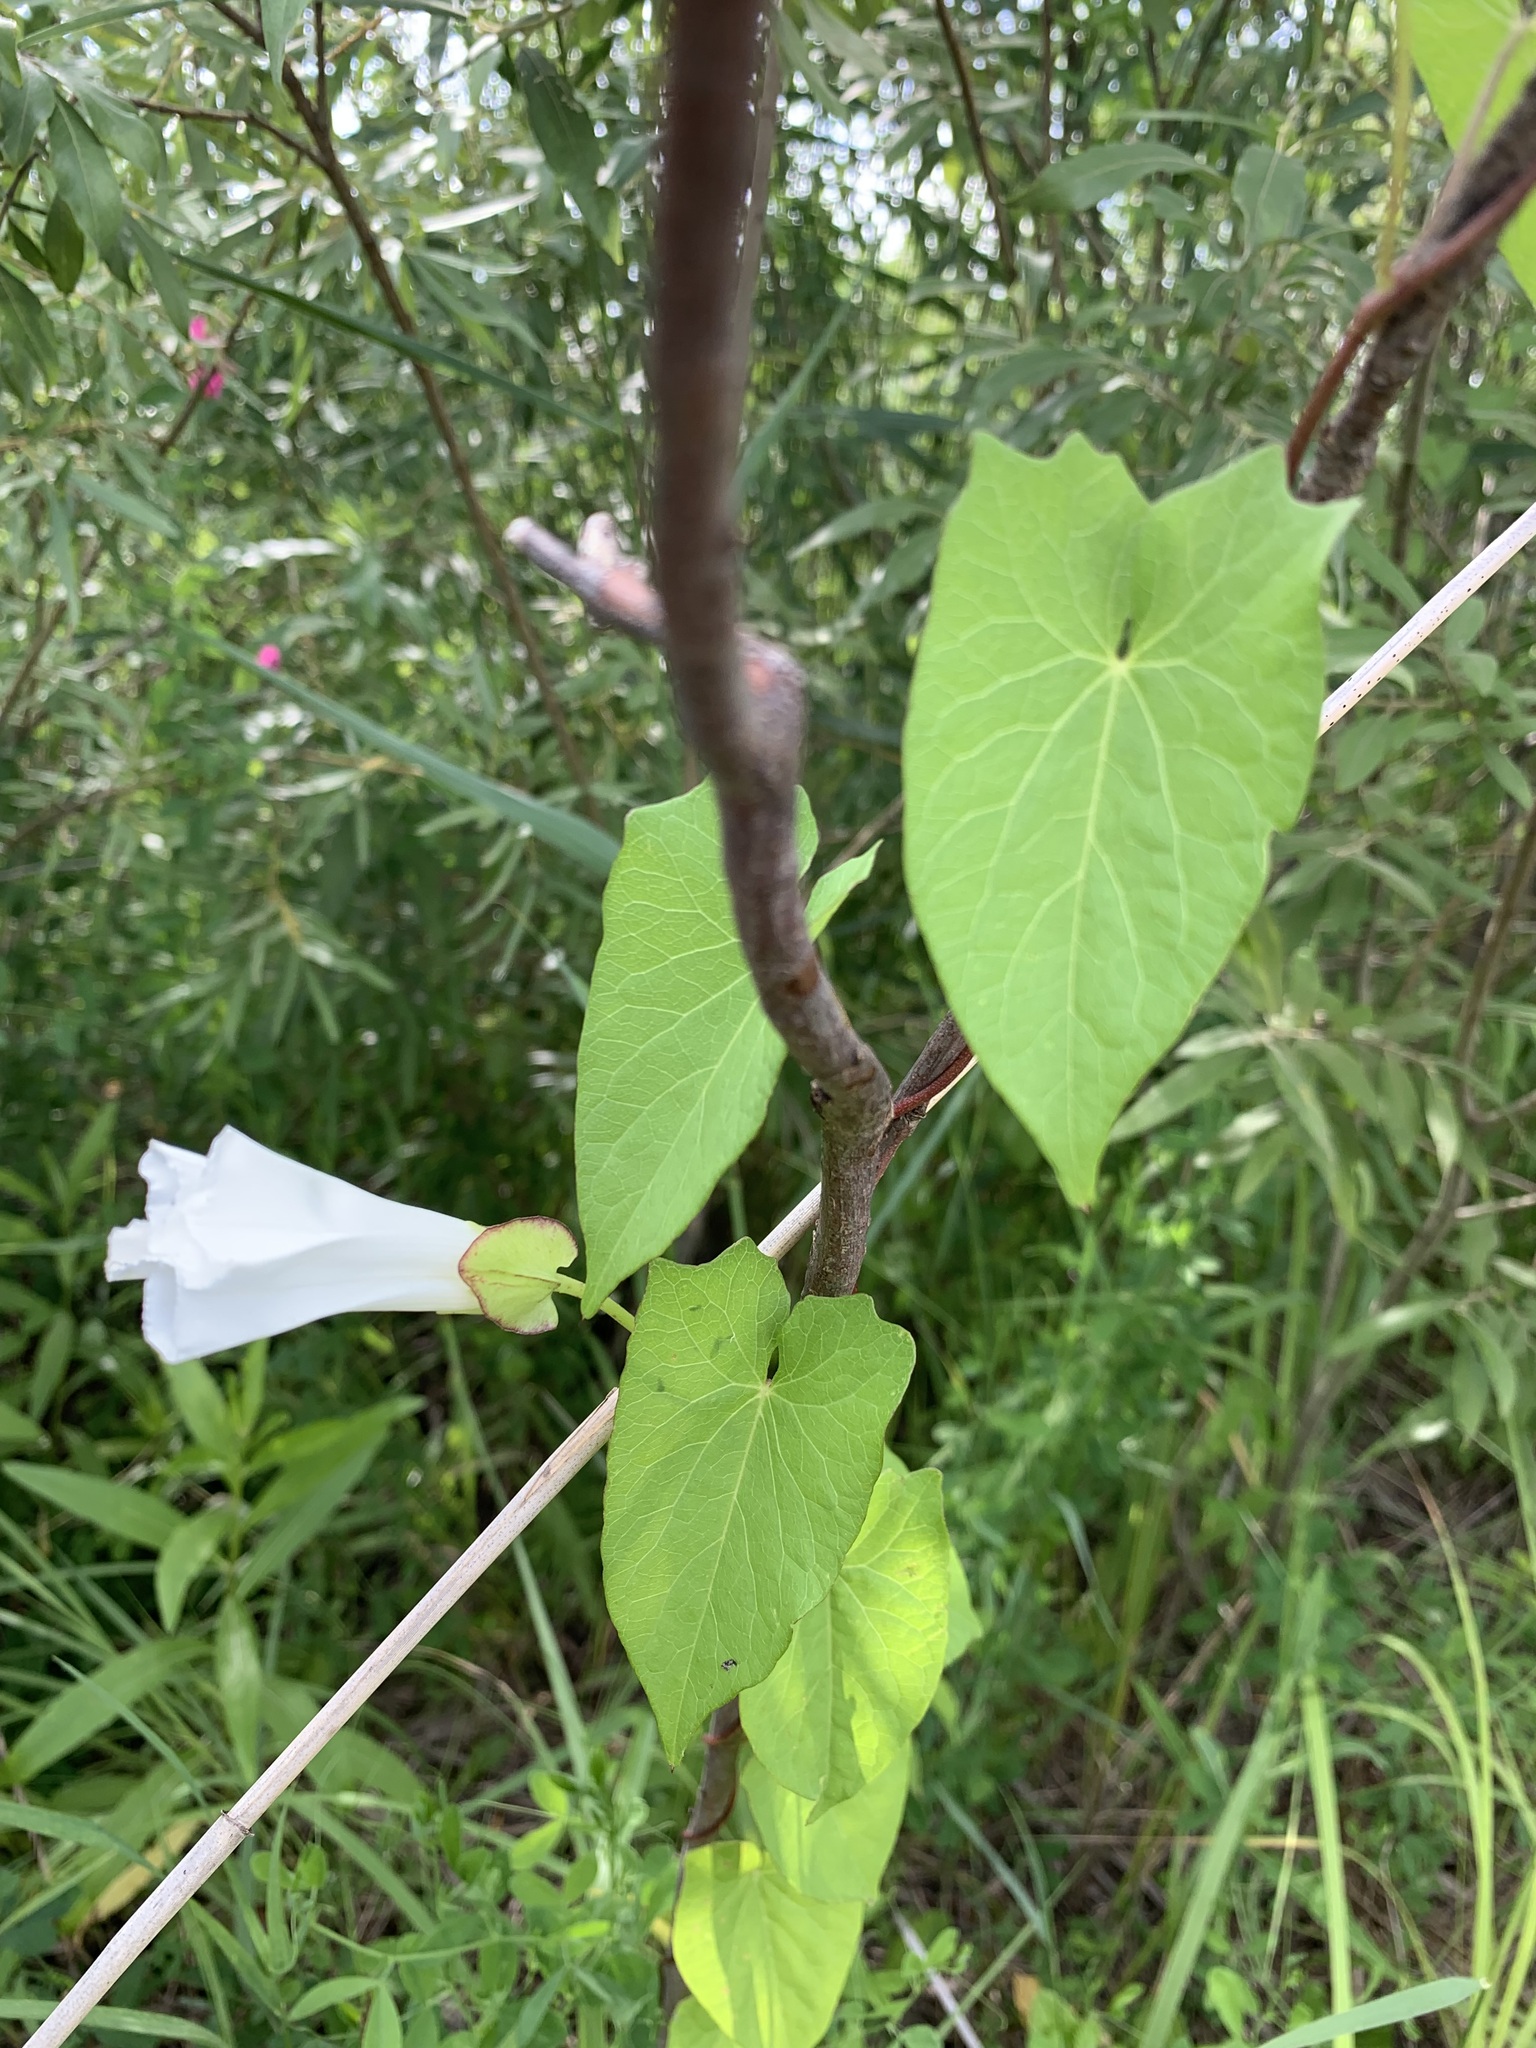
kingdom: Plantae
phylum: Tracheophyta
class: Magnoliopsida
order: Solanales
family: Convolvulaceae
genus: Calystegia
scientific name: Calystegia sepium
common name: Hedge bindweed
